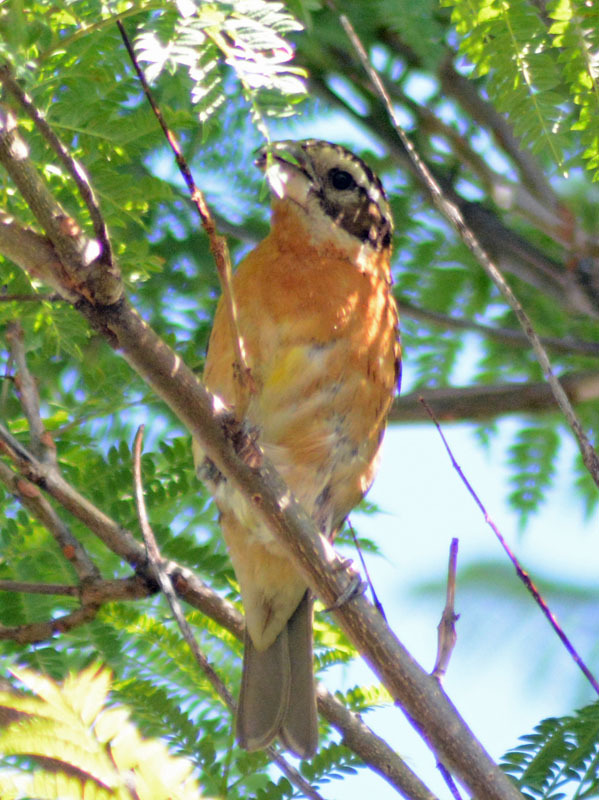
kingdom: Animalia
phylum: Chordata
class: Aves
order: Passeriformes
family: Cardinalidae
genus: Pheucticus
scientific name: Pheucticus melanocephalus
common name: Black-headed grosbeak
